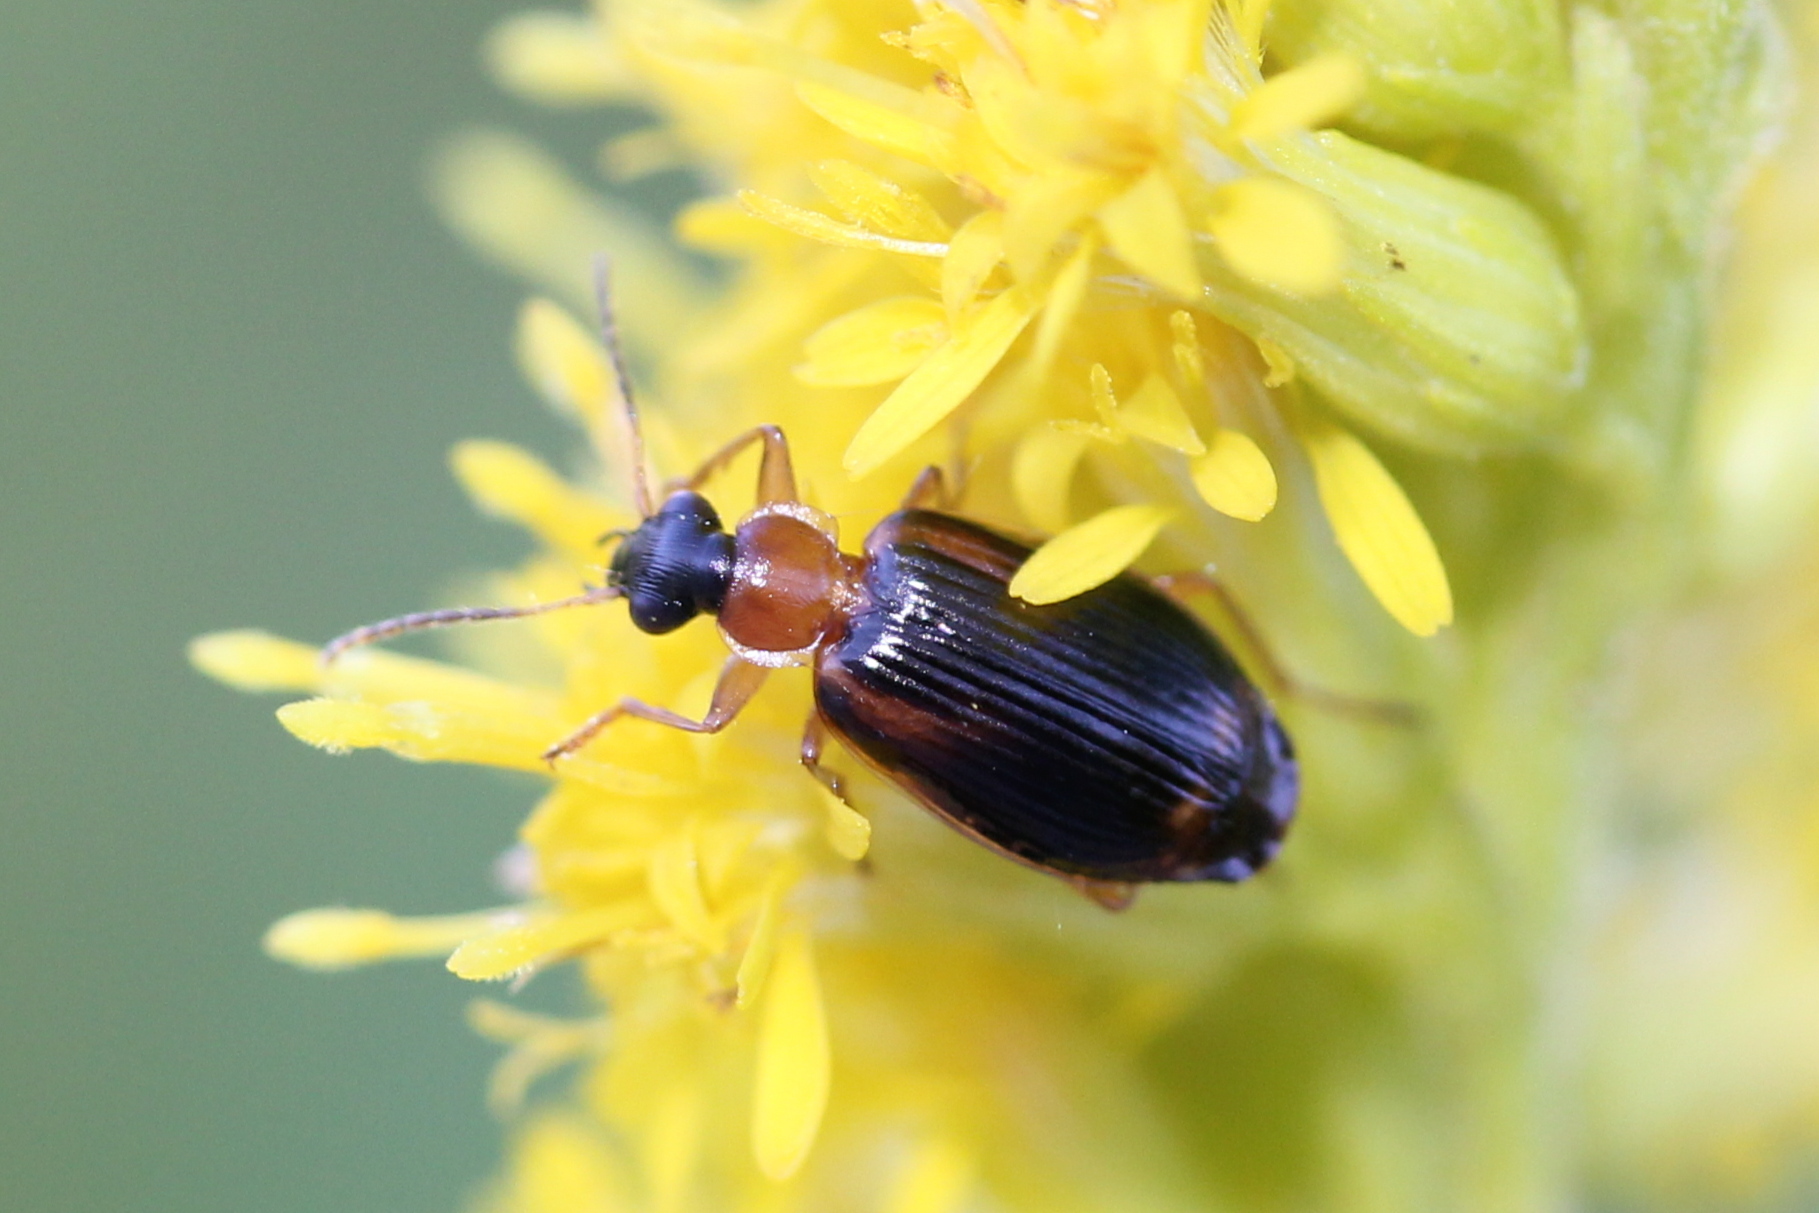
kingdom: Animalia
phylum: Arthropoda
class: Insecta
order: Coleoptera
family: Carabidae
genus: Lebia
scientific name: Lebia analis
